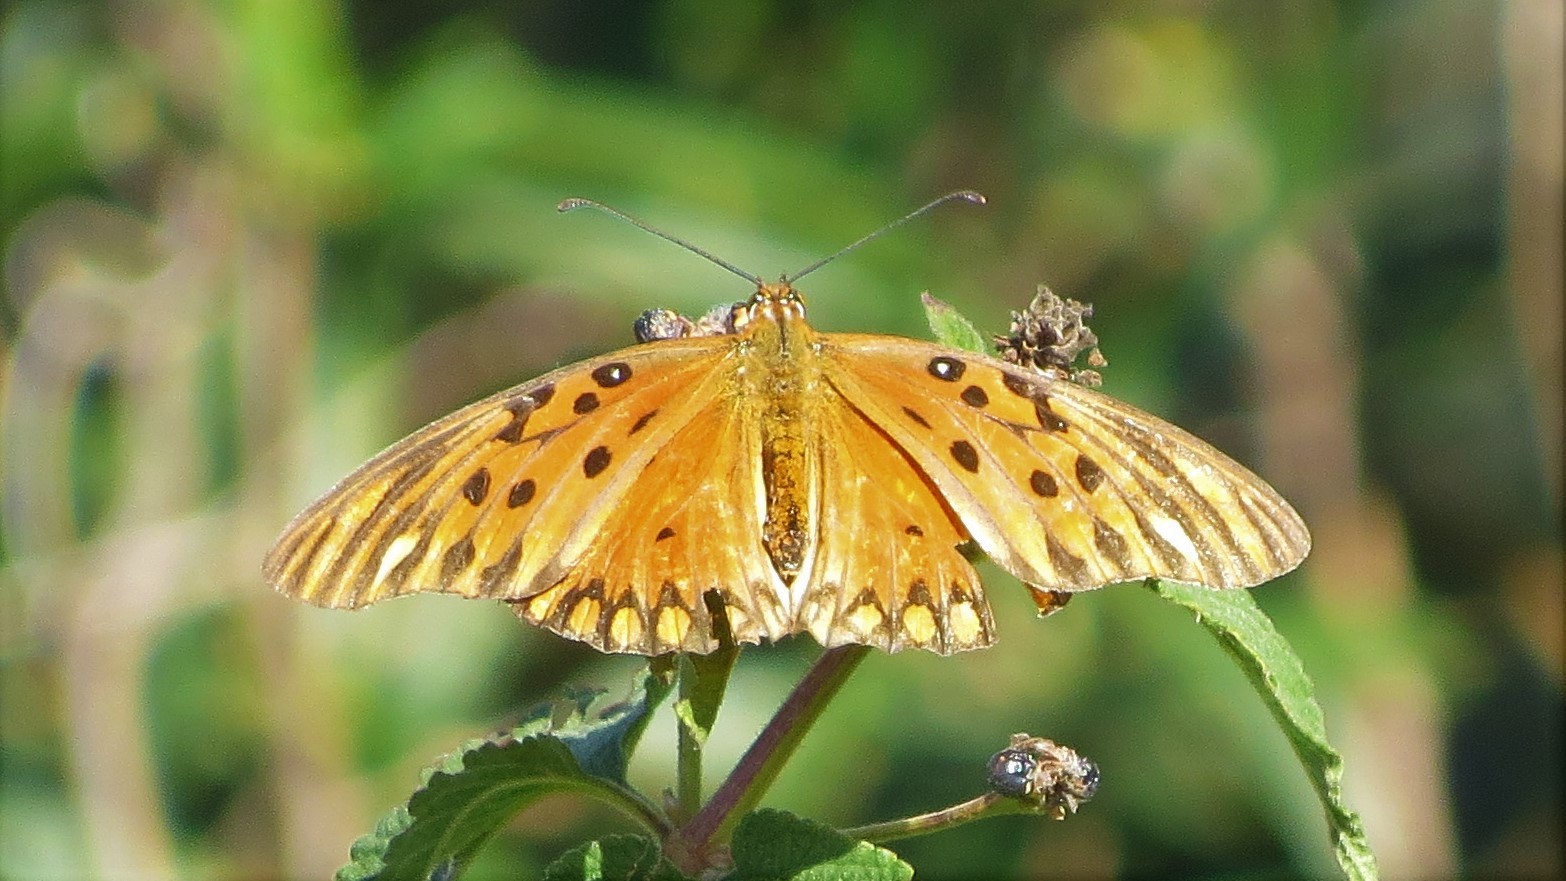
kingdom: Animalia
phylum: Arthropoda
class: Insecta
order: Lepidoptera
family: Nymphalidae
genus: Dione
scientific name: Dione vanillae
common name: Gulf fritillary
